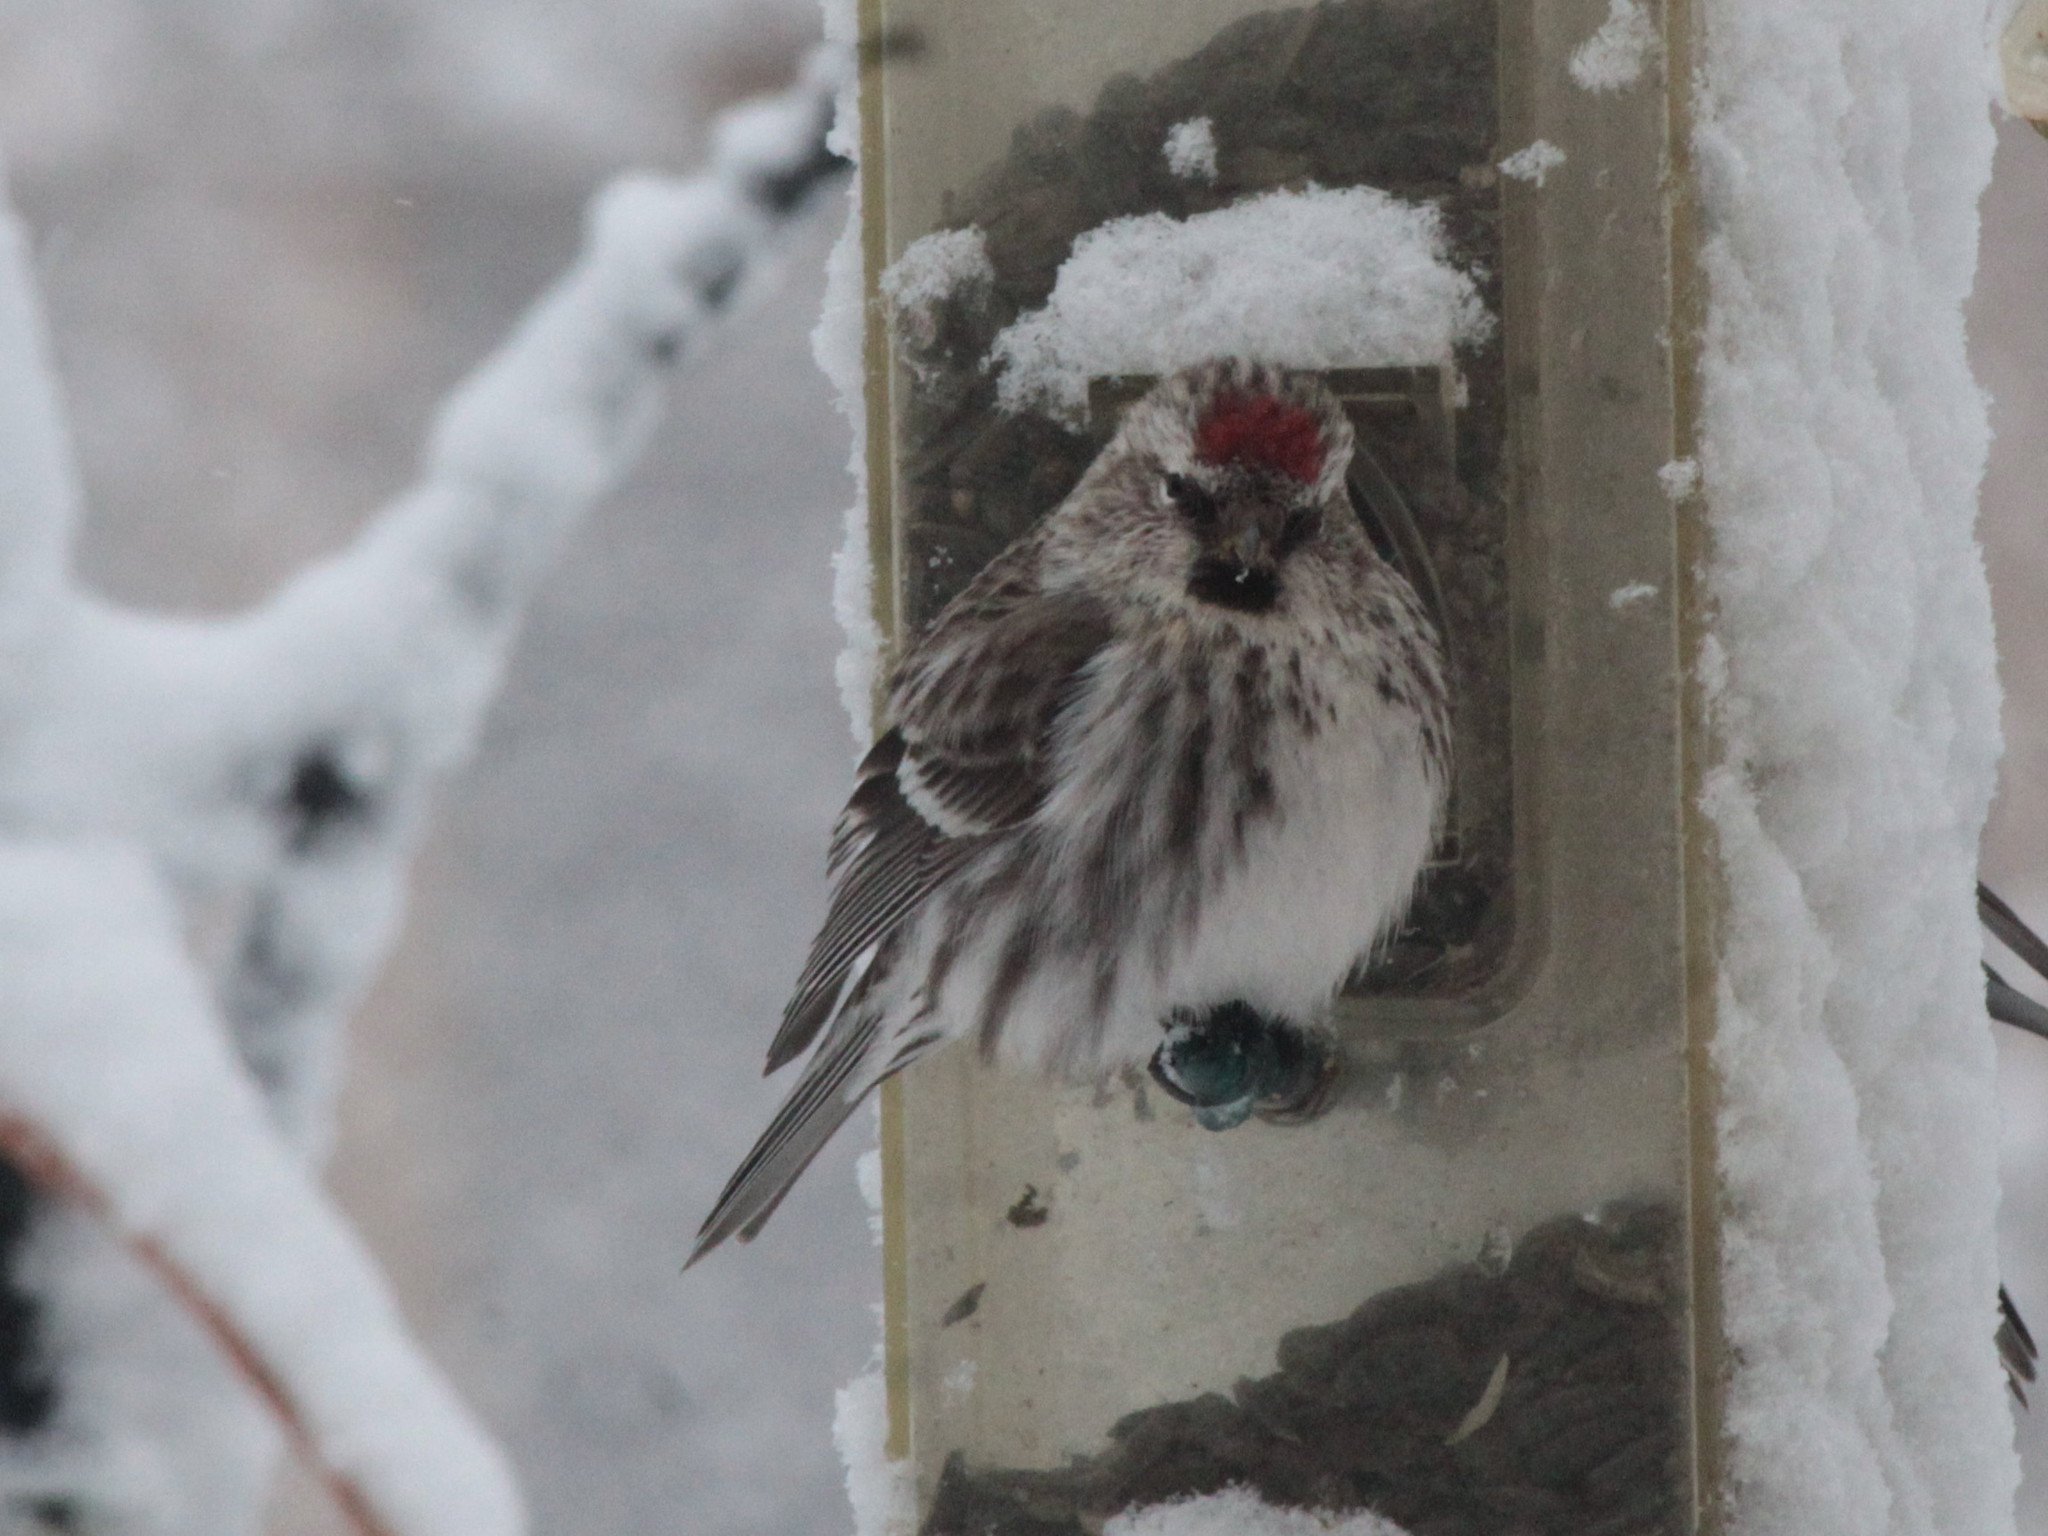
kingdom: Animalia
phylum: Chordata
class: Aves
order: Passeriformes
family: Fringillidae
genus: Acanthis
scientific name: Acanthis flammea
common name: Common redpoll
